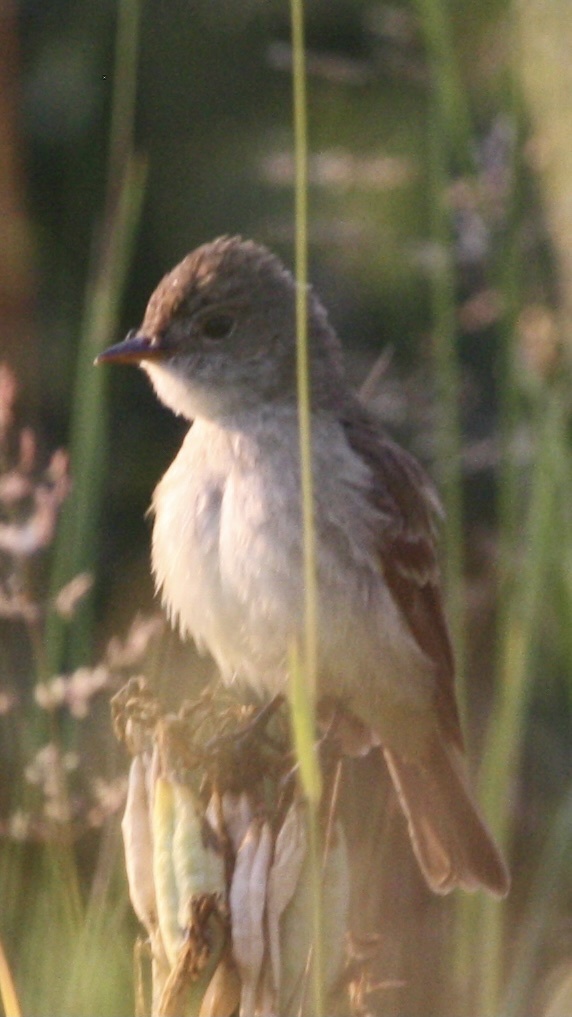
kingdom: Animalia
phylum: Chordata
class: Aves
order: Passeriformes
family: Tyrannidae
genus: Empidonax
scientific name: Empidonax traillii
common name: Willow flycatcher
